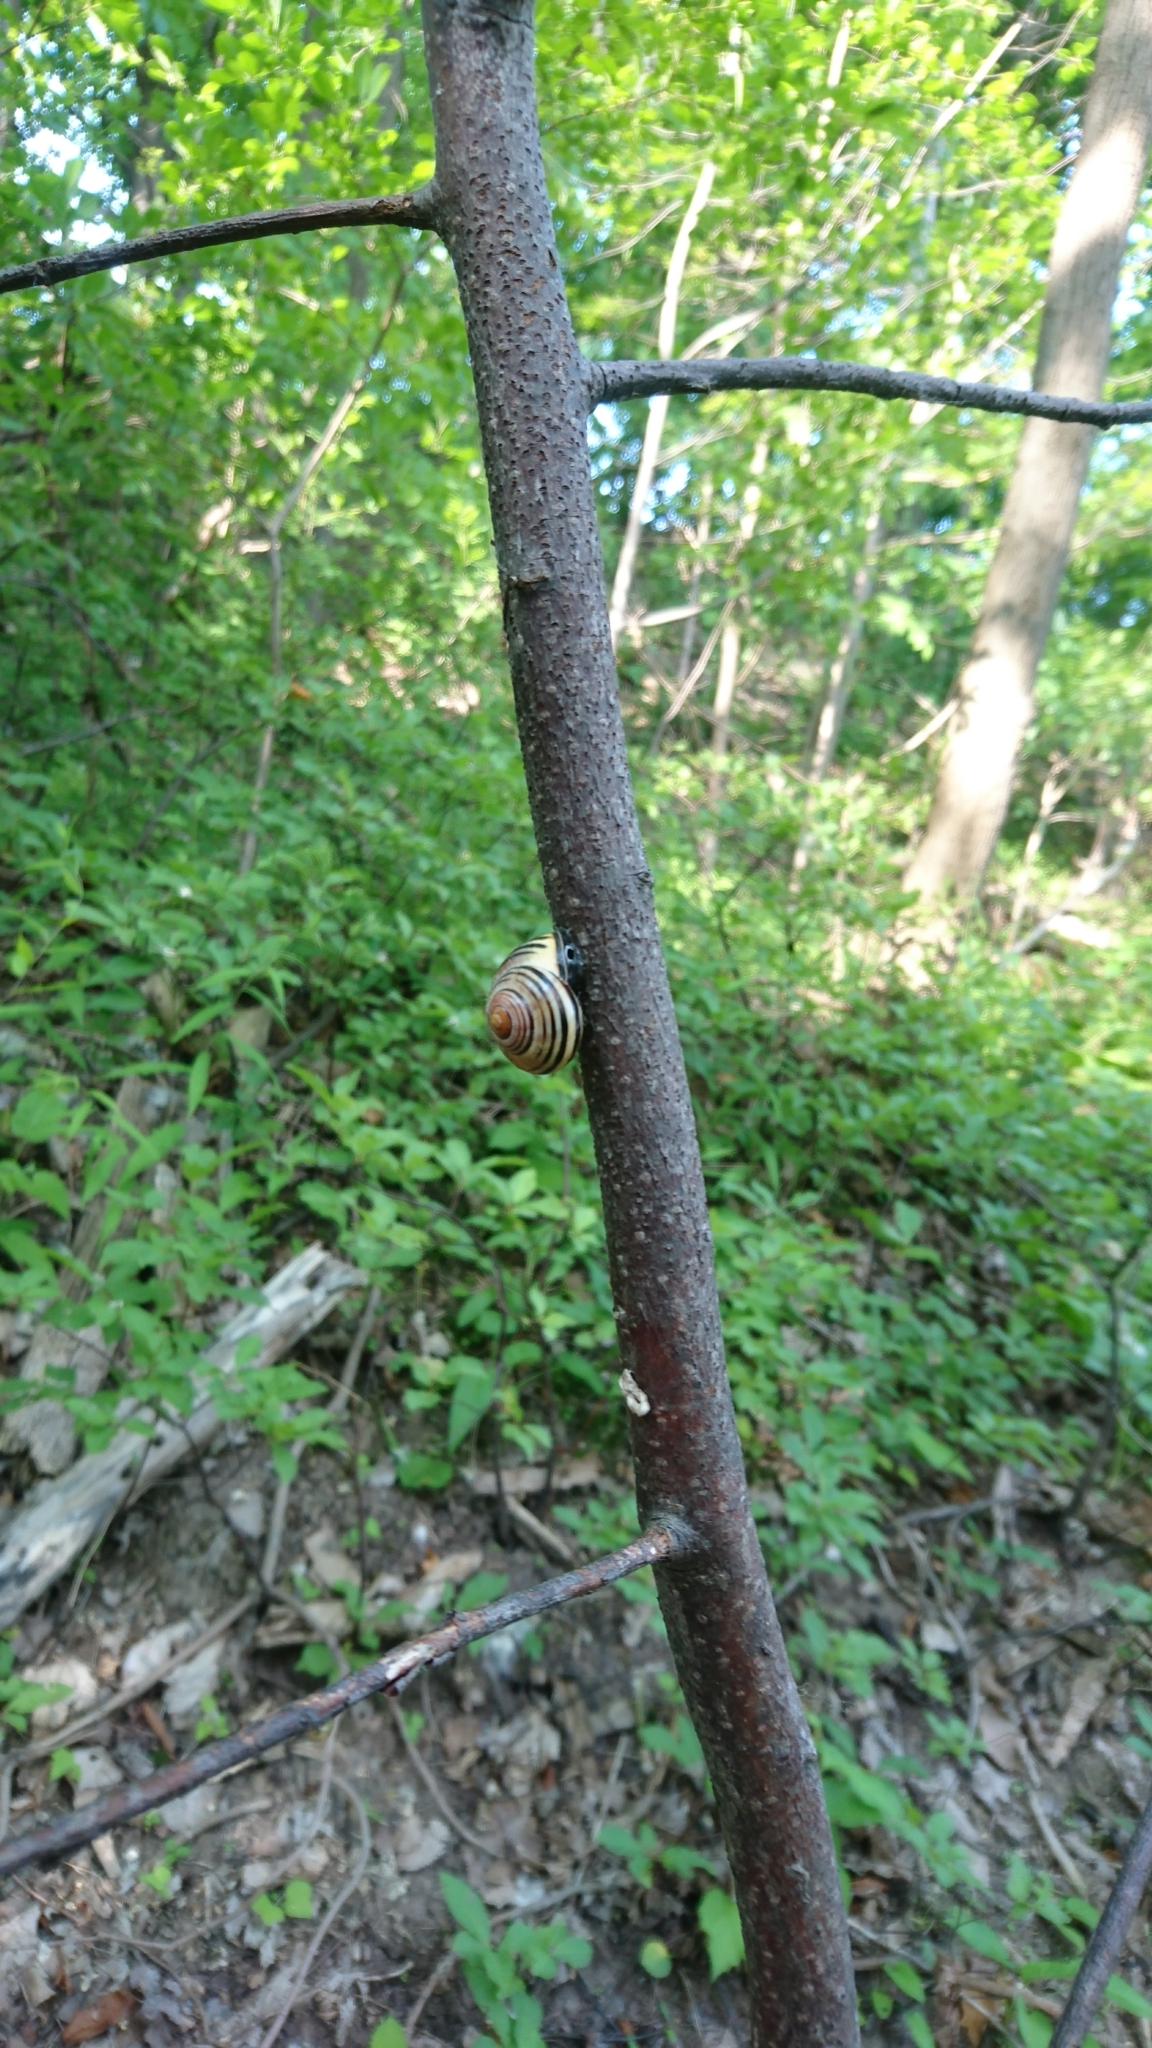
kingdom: Animalia
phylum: Mollusca
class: Gastropoda
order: Stylommatophora
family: Helicidae
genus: Cepaea
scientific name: Cepaea nemoralis
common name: Grovesnail
